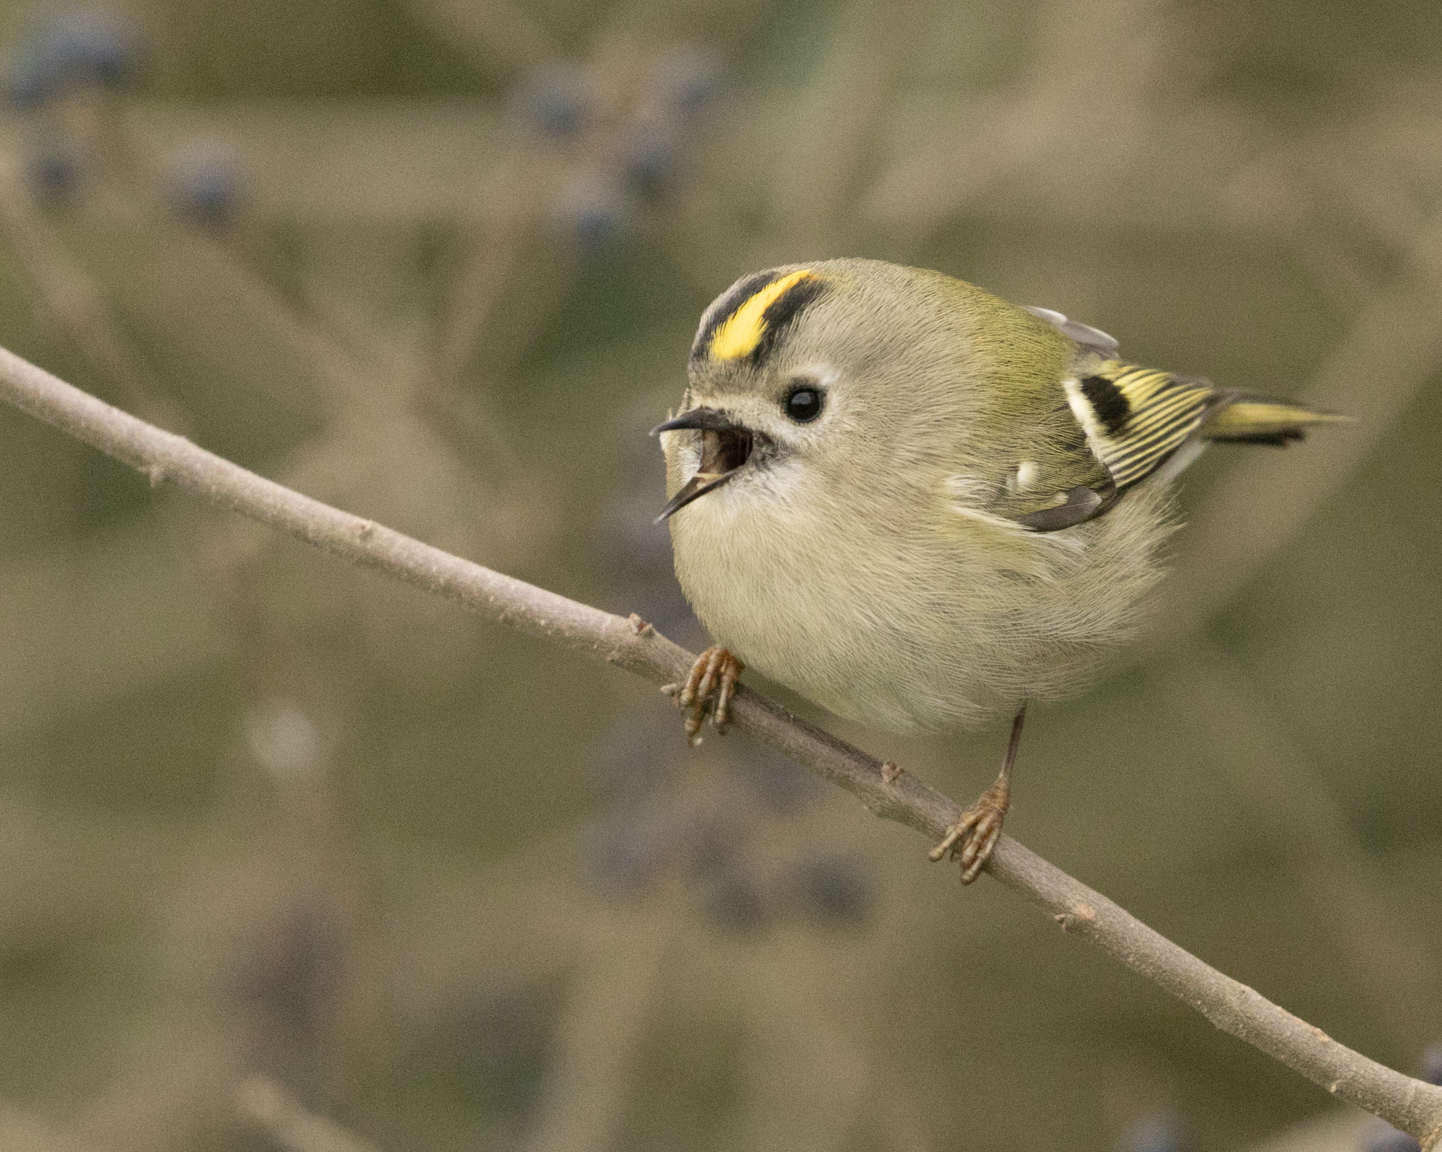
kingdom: Animalia
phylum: Chordata
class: Aves
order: Passeriformes
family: Regulidae
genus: Regulus
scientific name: Regulus regulus
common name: Goldcrest
